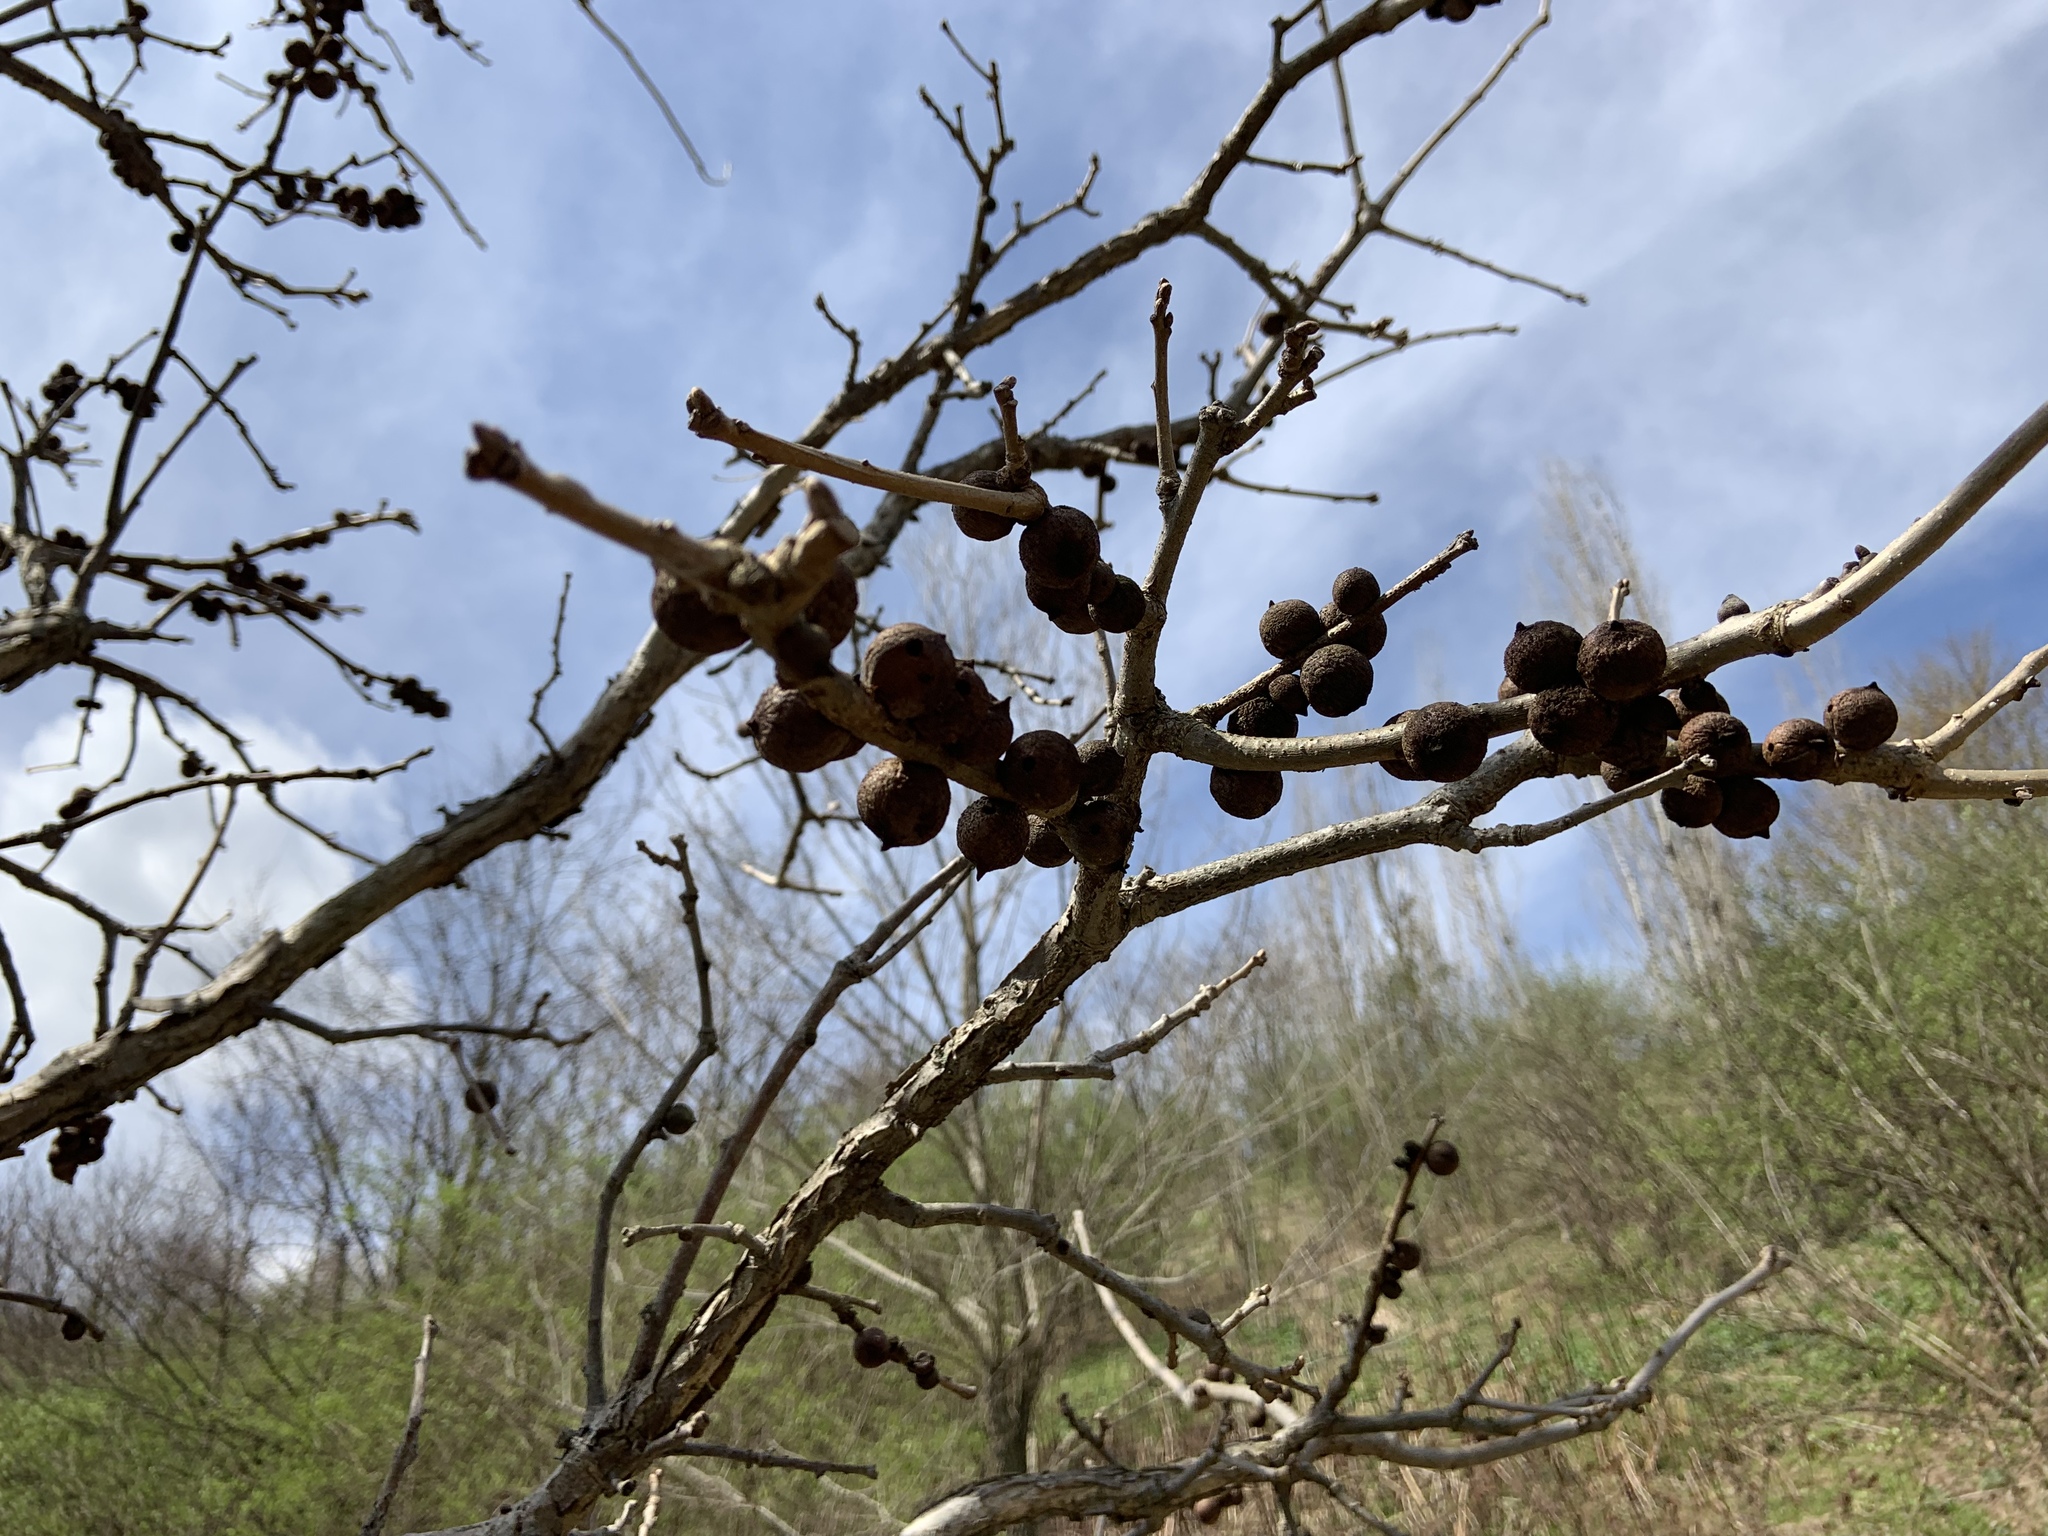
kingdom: Animalia
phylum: Arthropoda
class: Insecta
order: Hymenoptera
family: Cynipidae
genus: Disholcaspis
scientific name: Disholcaspis
